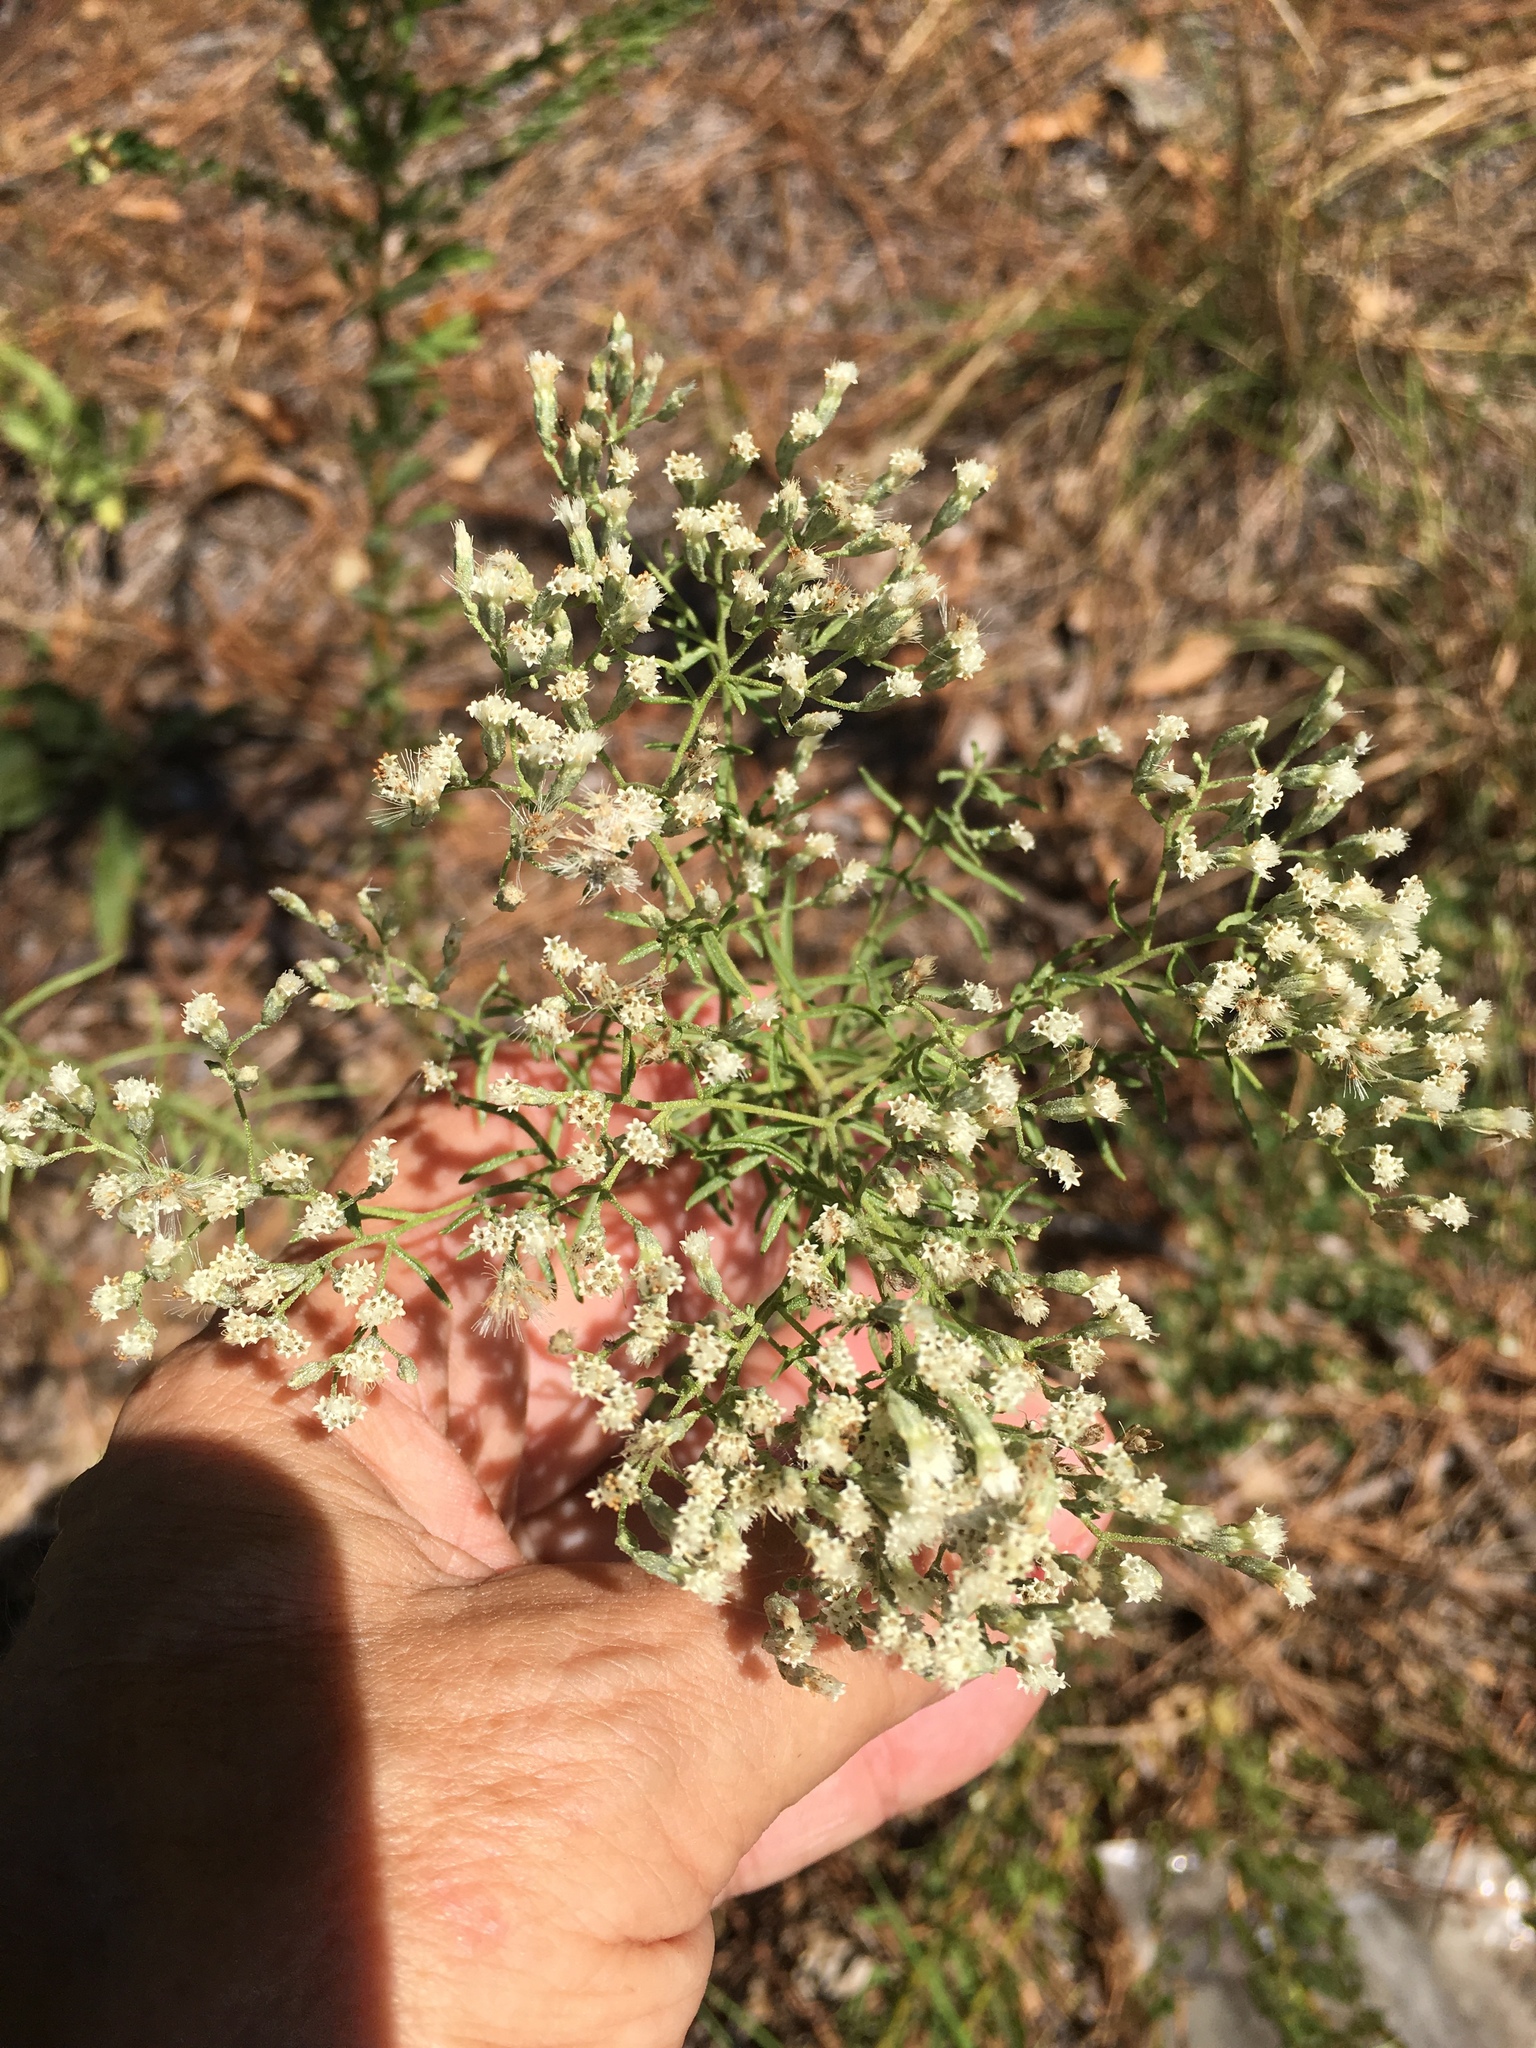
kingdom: Plantae
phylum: Tracheophyta
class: Magnoliopsida
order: Asterales
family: Asteraceae
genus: Eupatorium
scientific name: Eupatorium hyssopifolium
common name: Hyssop-leaf thoroughwort
